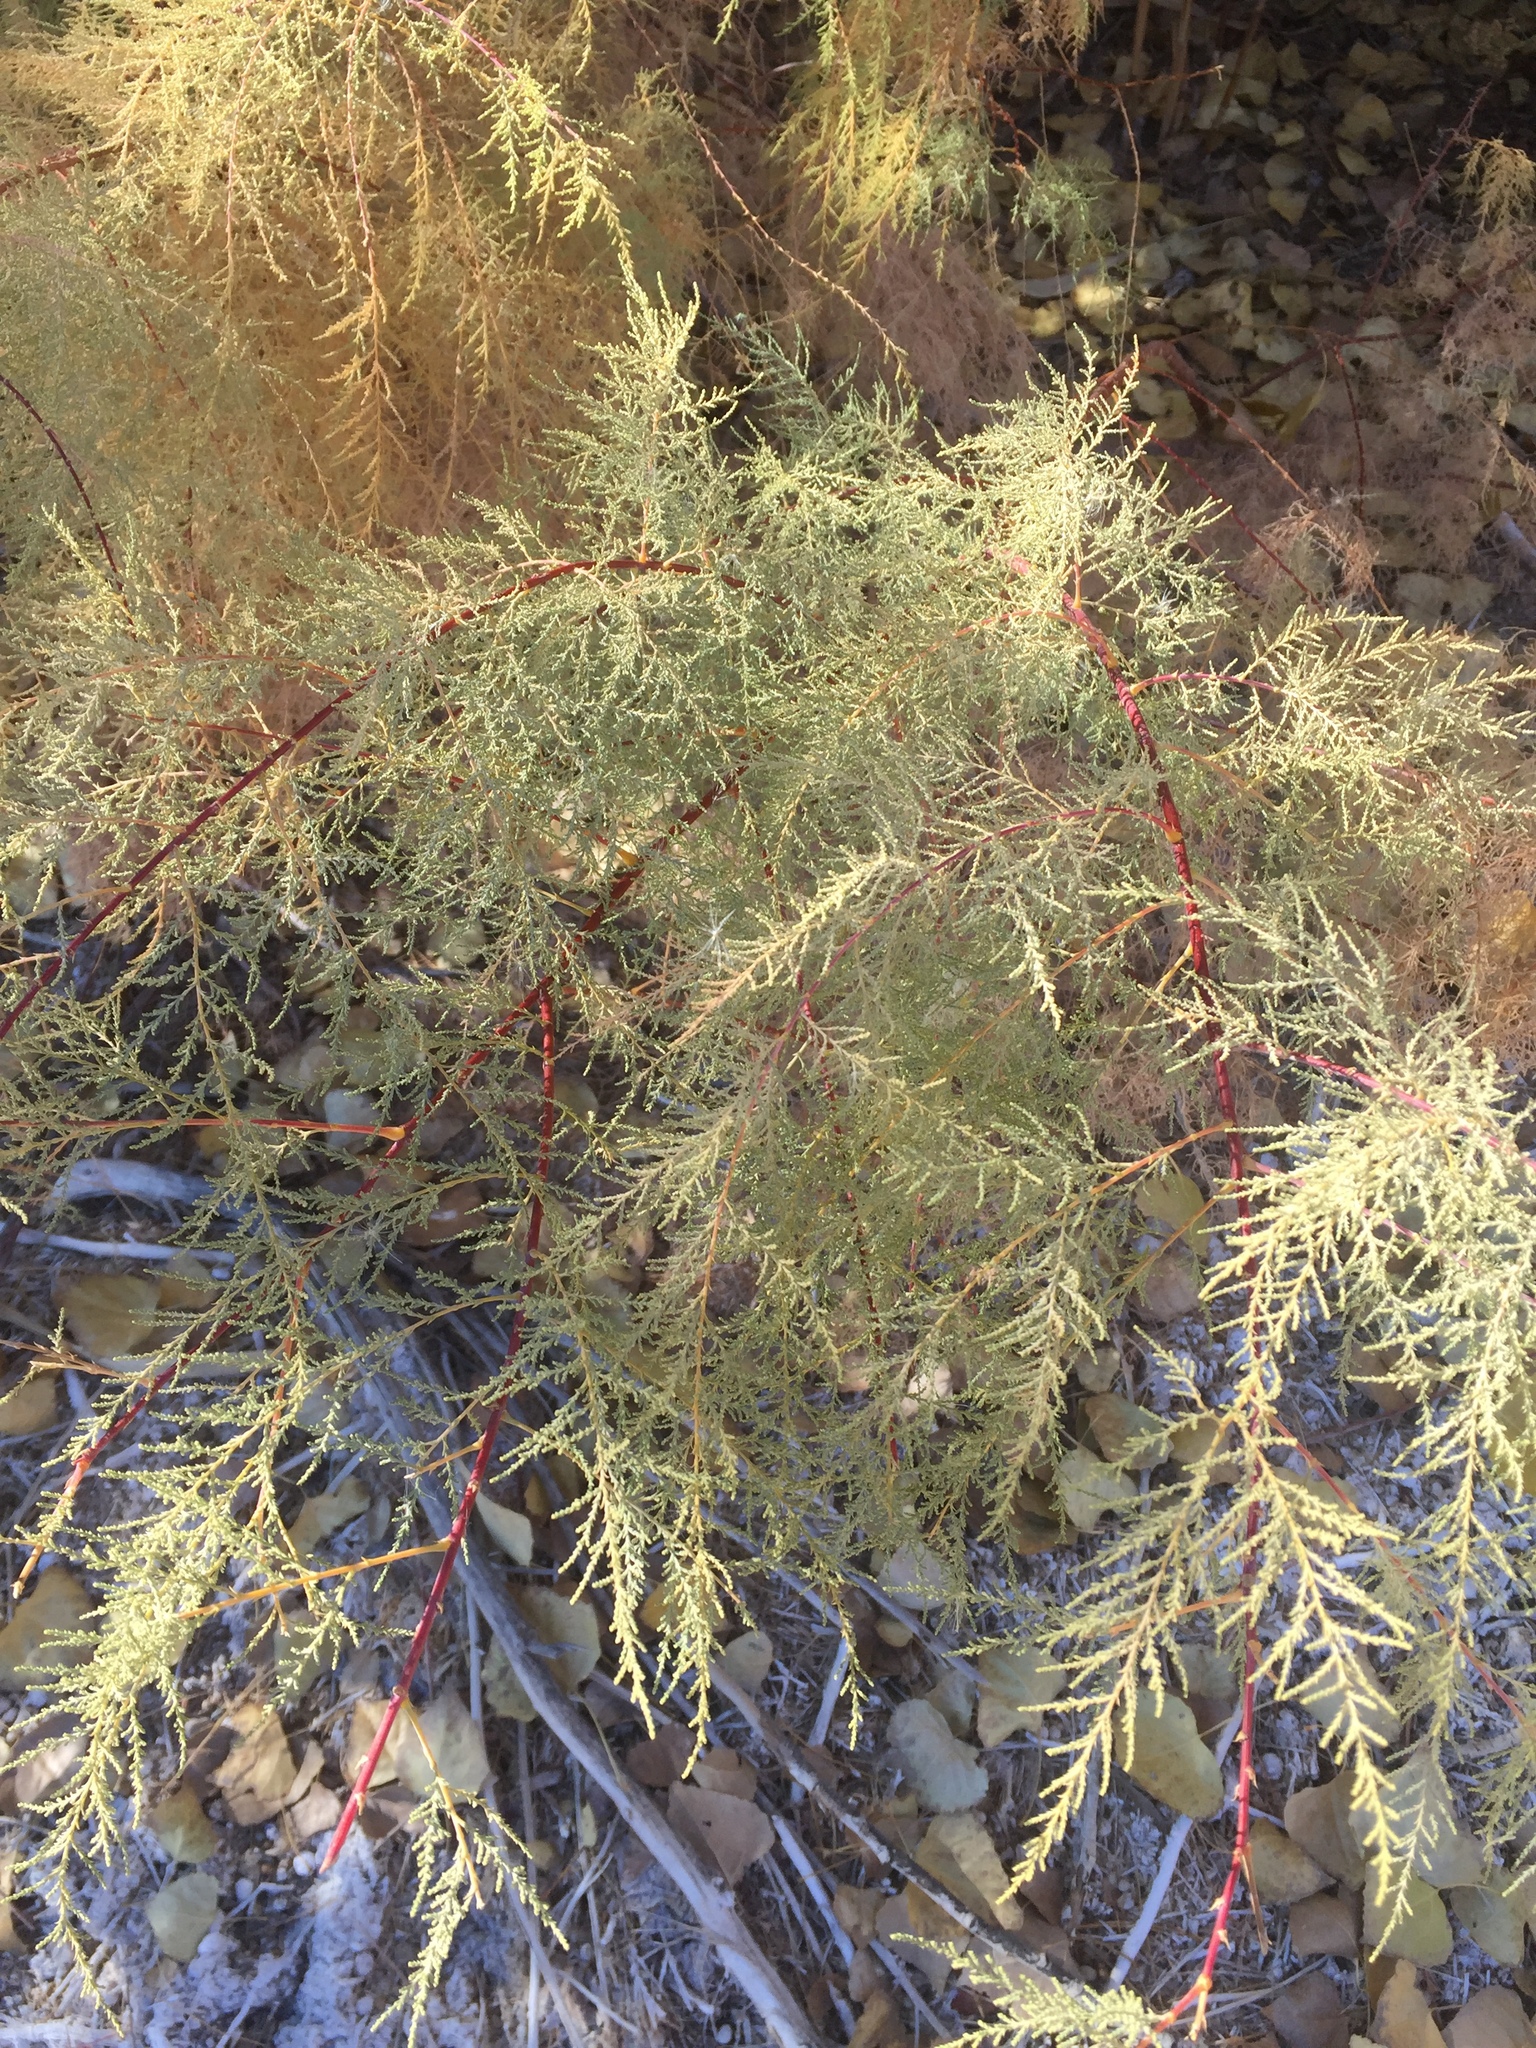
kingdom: Plantae
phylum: Tracheophyta
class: Magnoliopsida
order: Caryophyllales
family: Tamaricaceae
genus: Tamarix
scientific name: Tamarix ramosissima
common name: Pink tamarisk
